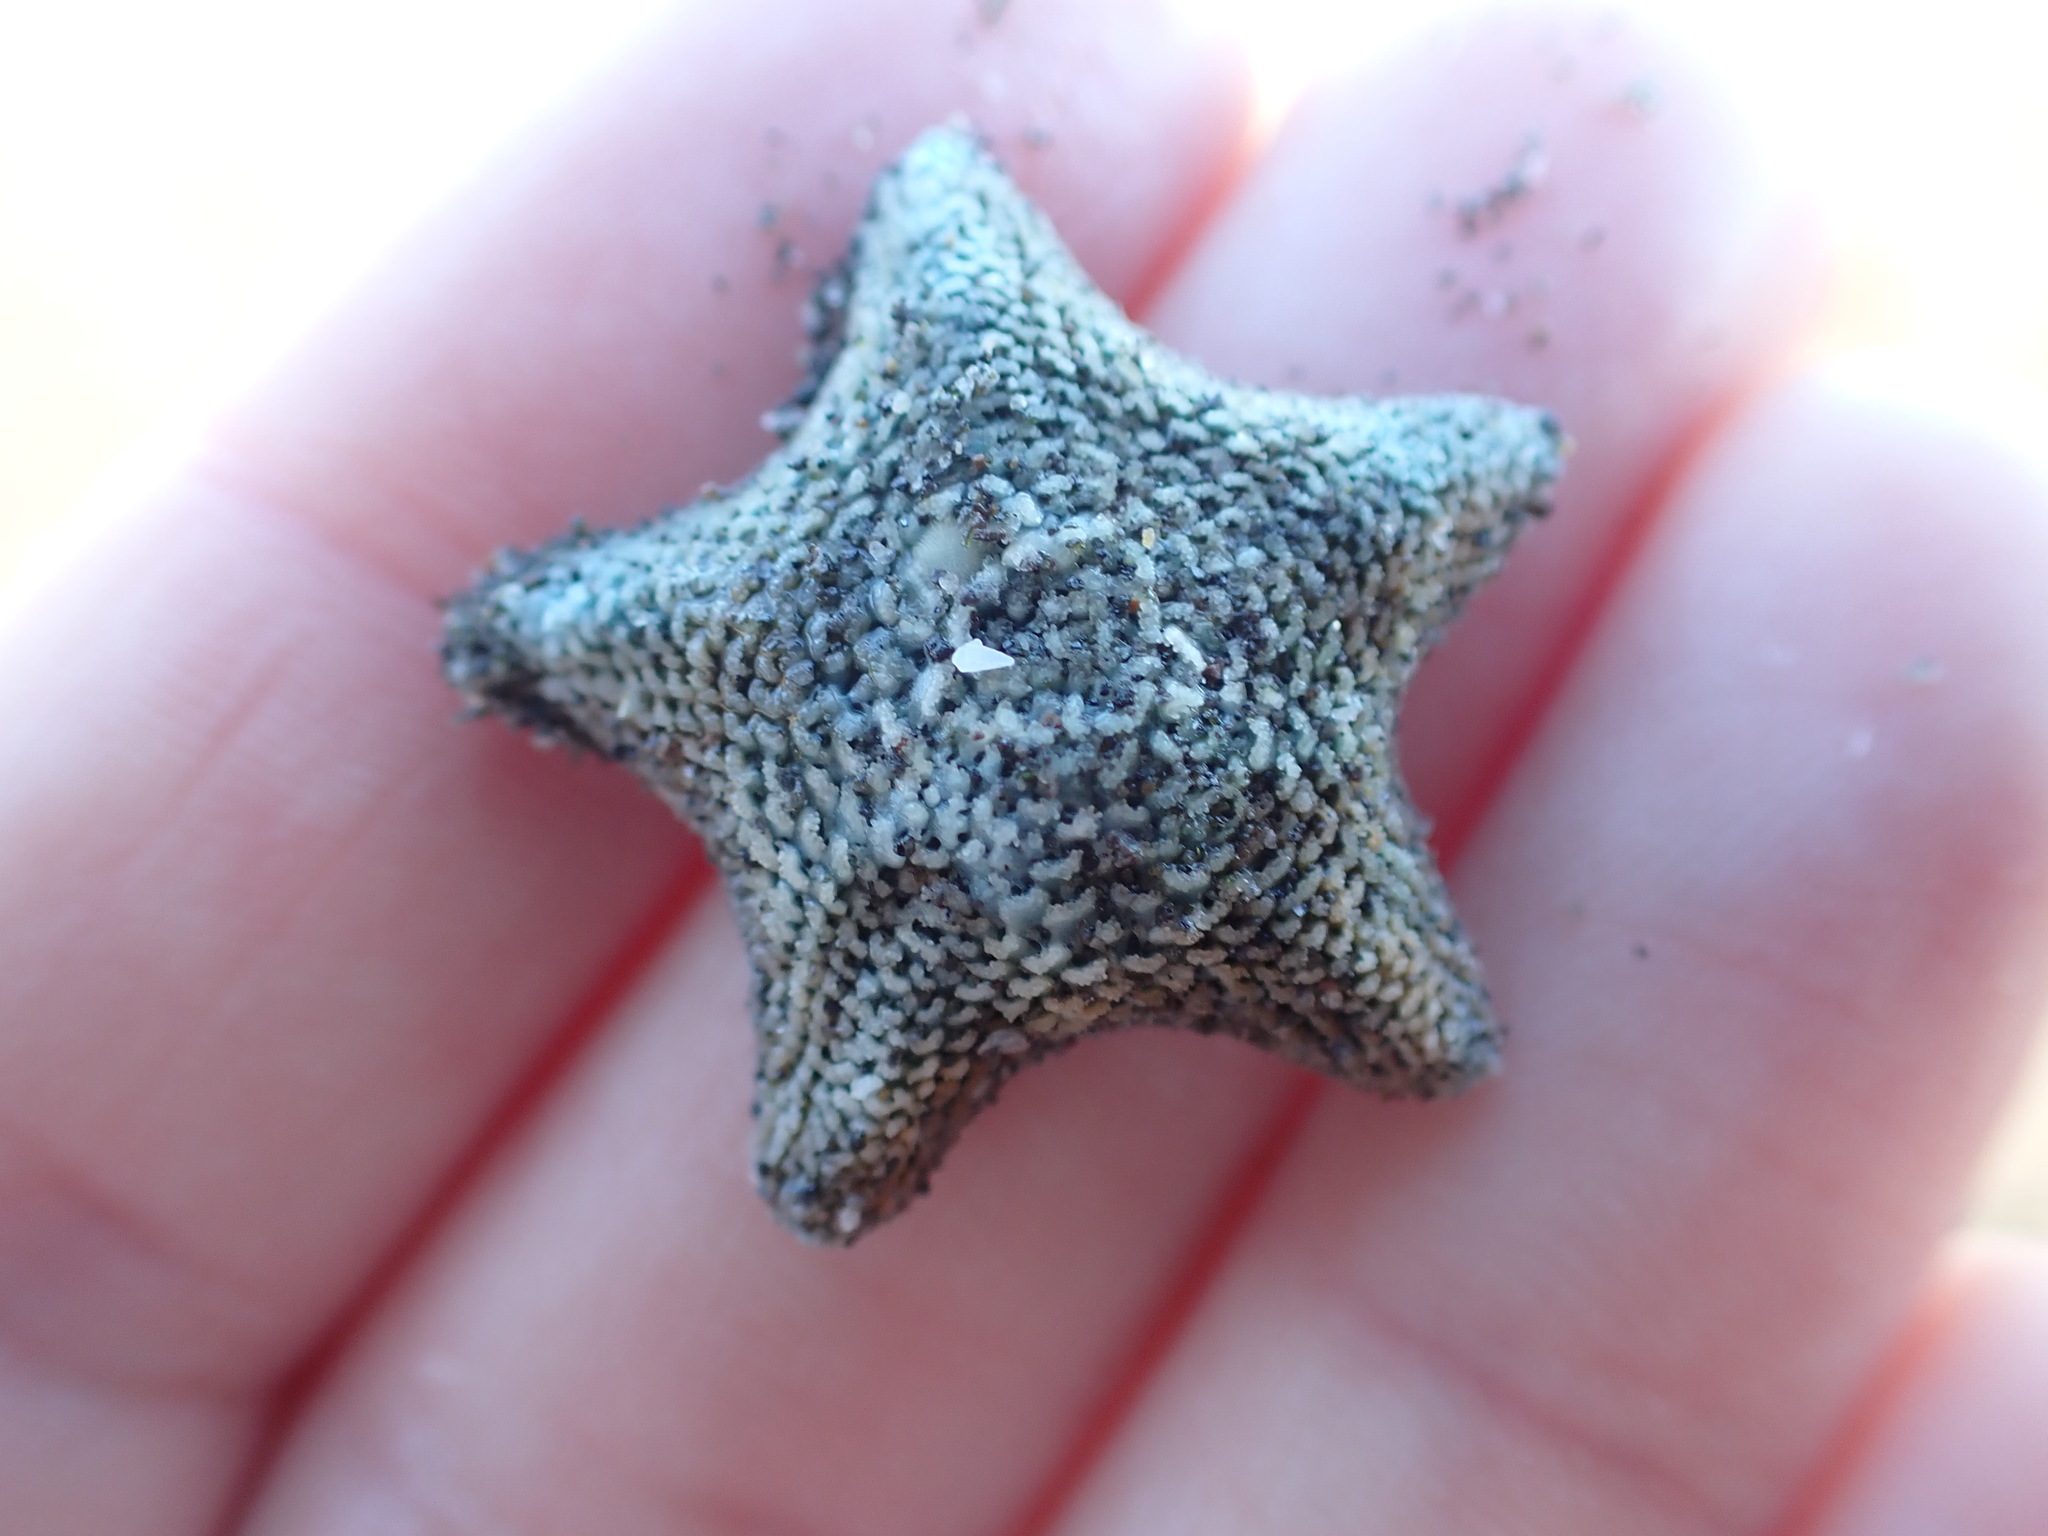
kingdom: Animalia
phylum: Echinodermata
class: Asteroidea
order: Valvatida
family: Asterinidae
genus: Patiriella
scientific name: Patiriella regularis
